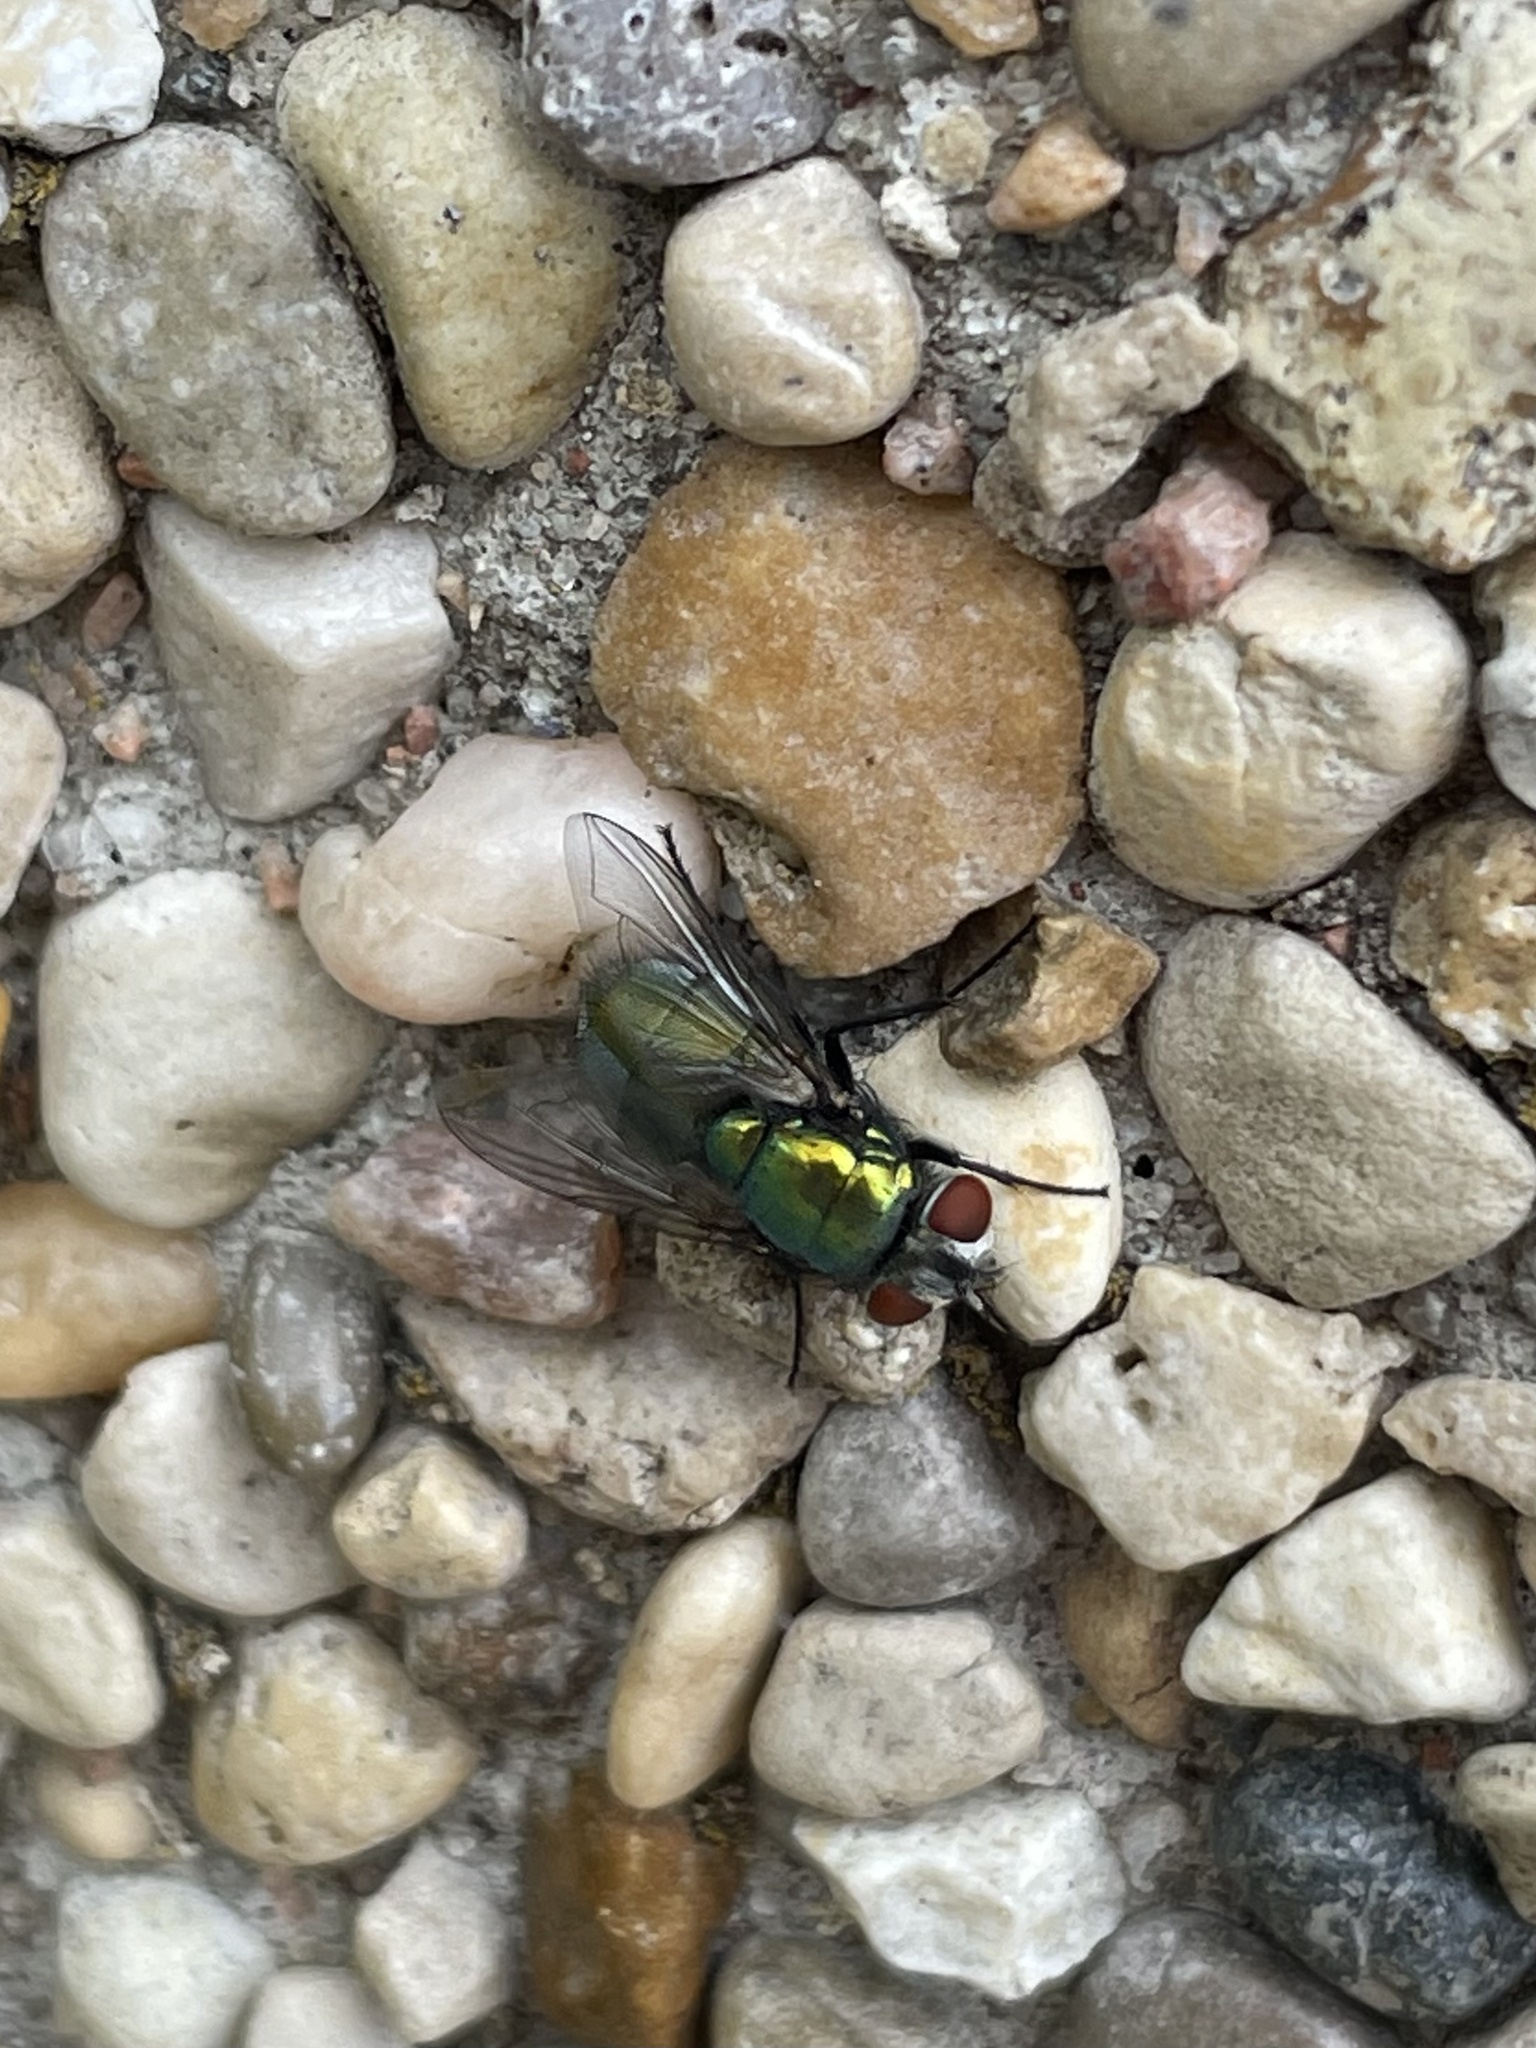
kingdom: Animalia
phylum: Arthropoda
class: Insecta
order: Diptera
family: Calliphoridae
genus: Lucilia
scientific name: Lucilia sericata
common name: Blow fly
